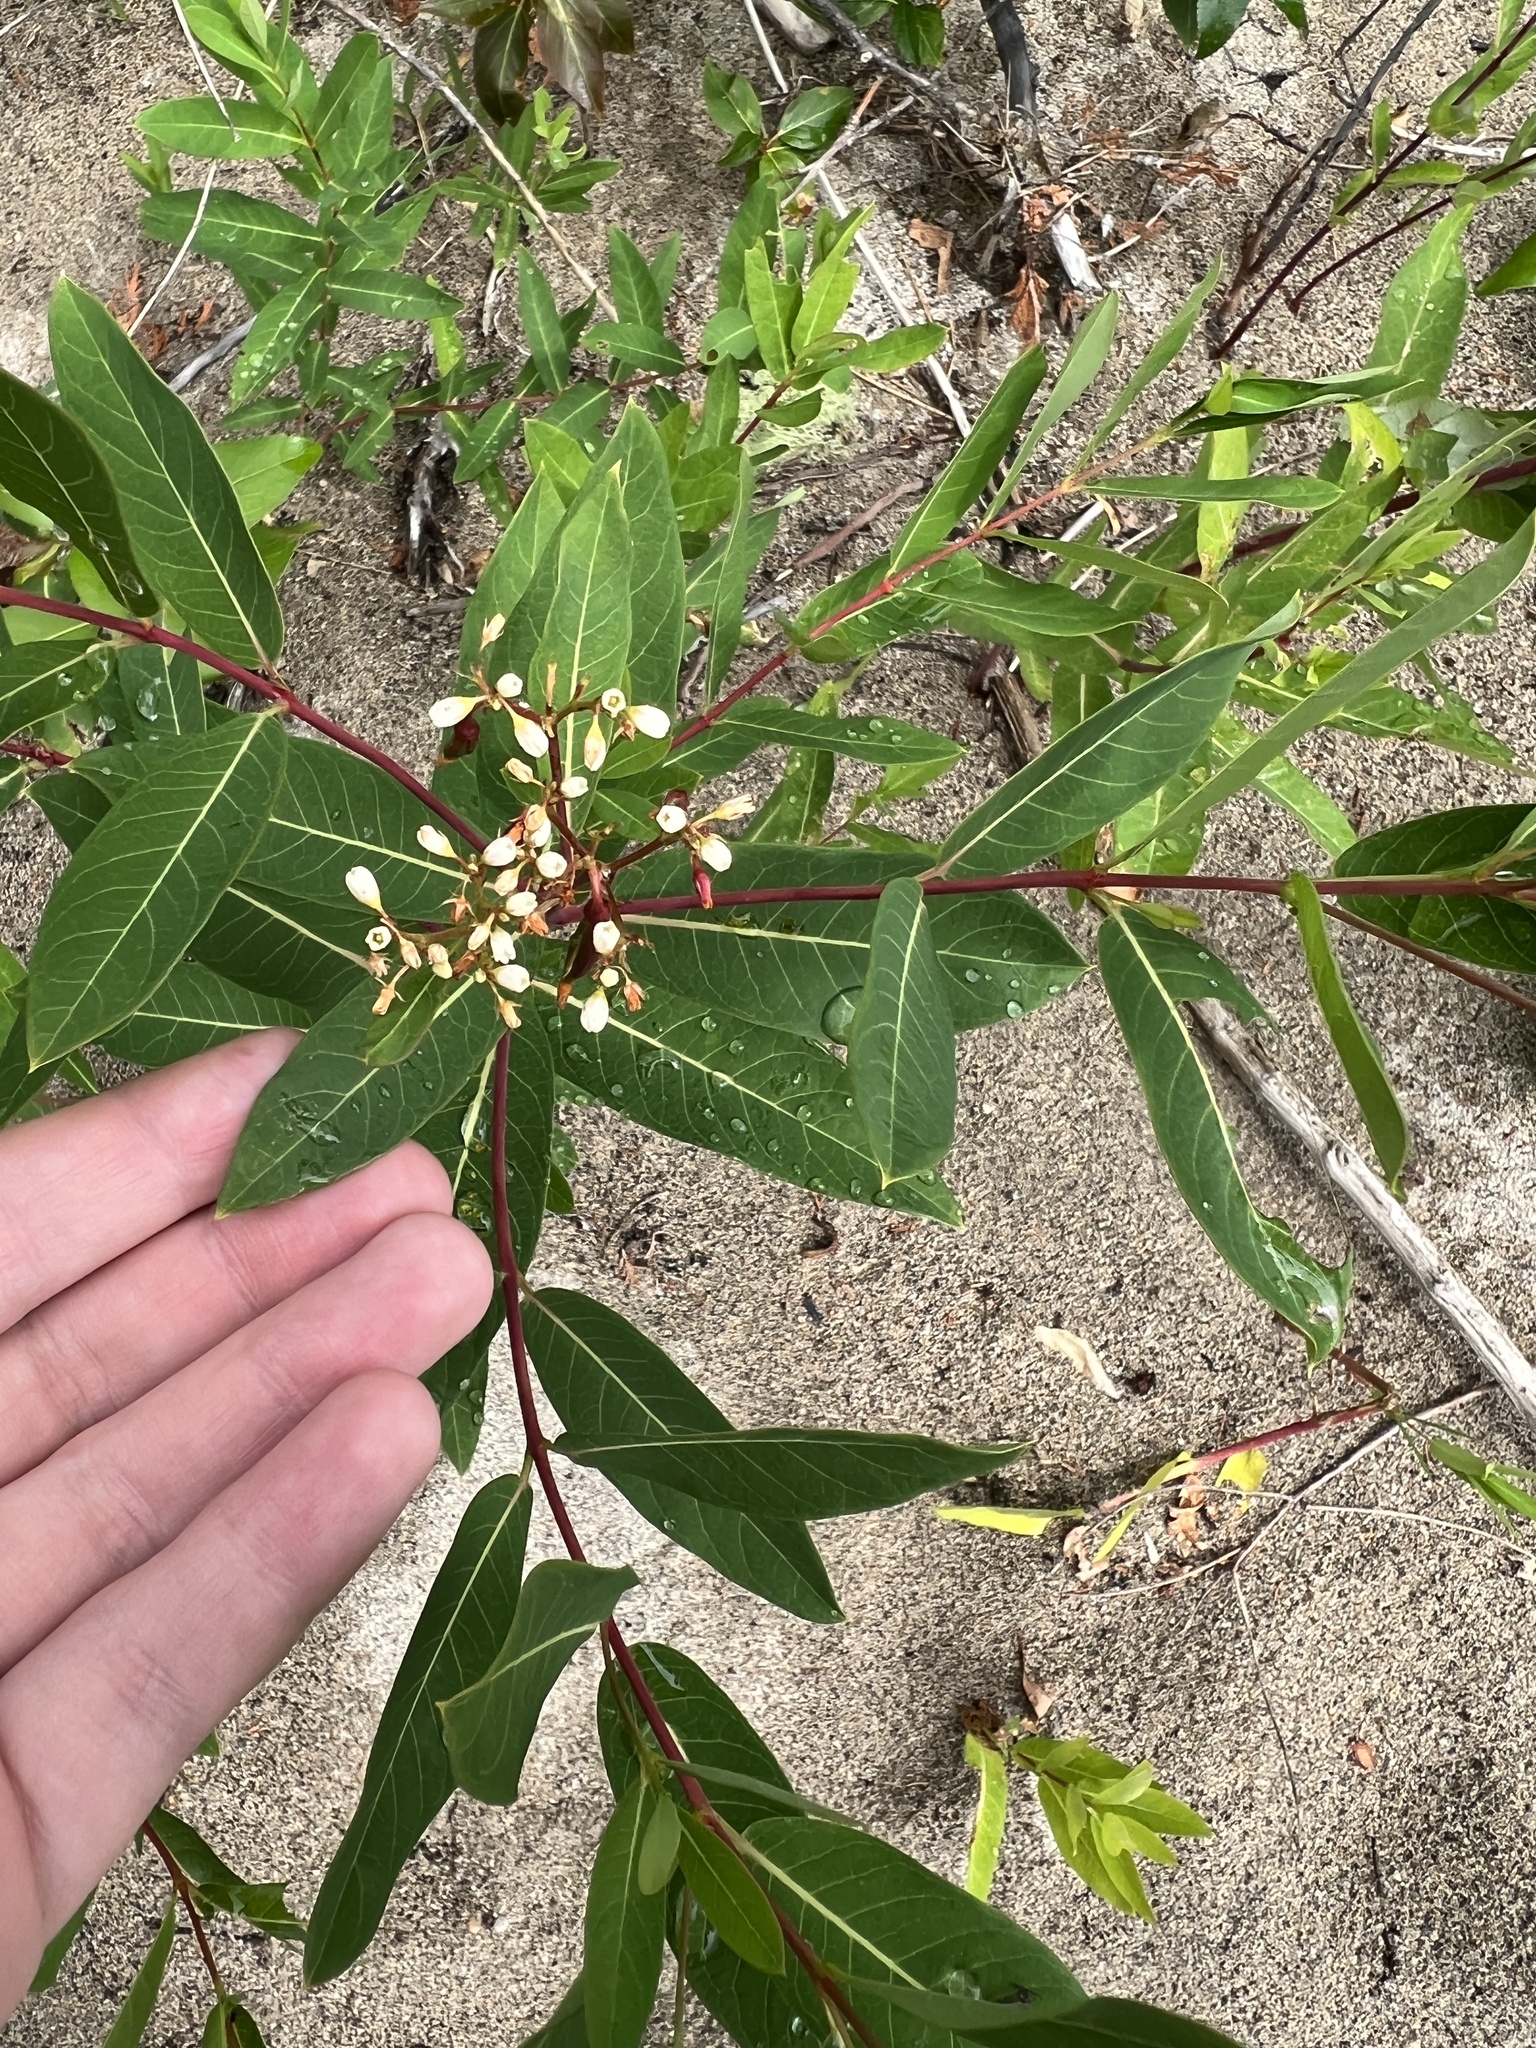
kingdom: Plantae
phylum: Tracheophyta
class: Magnoliopsida
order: Gentianales
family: Apocynaceae
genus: Apocynum
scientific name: Apocynum cannabinum
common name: Hemp dogbane
